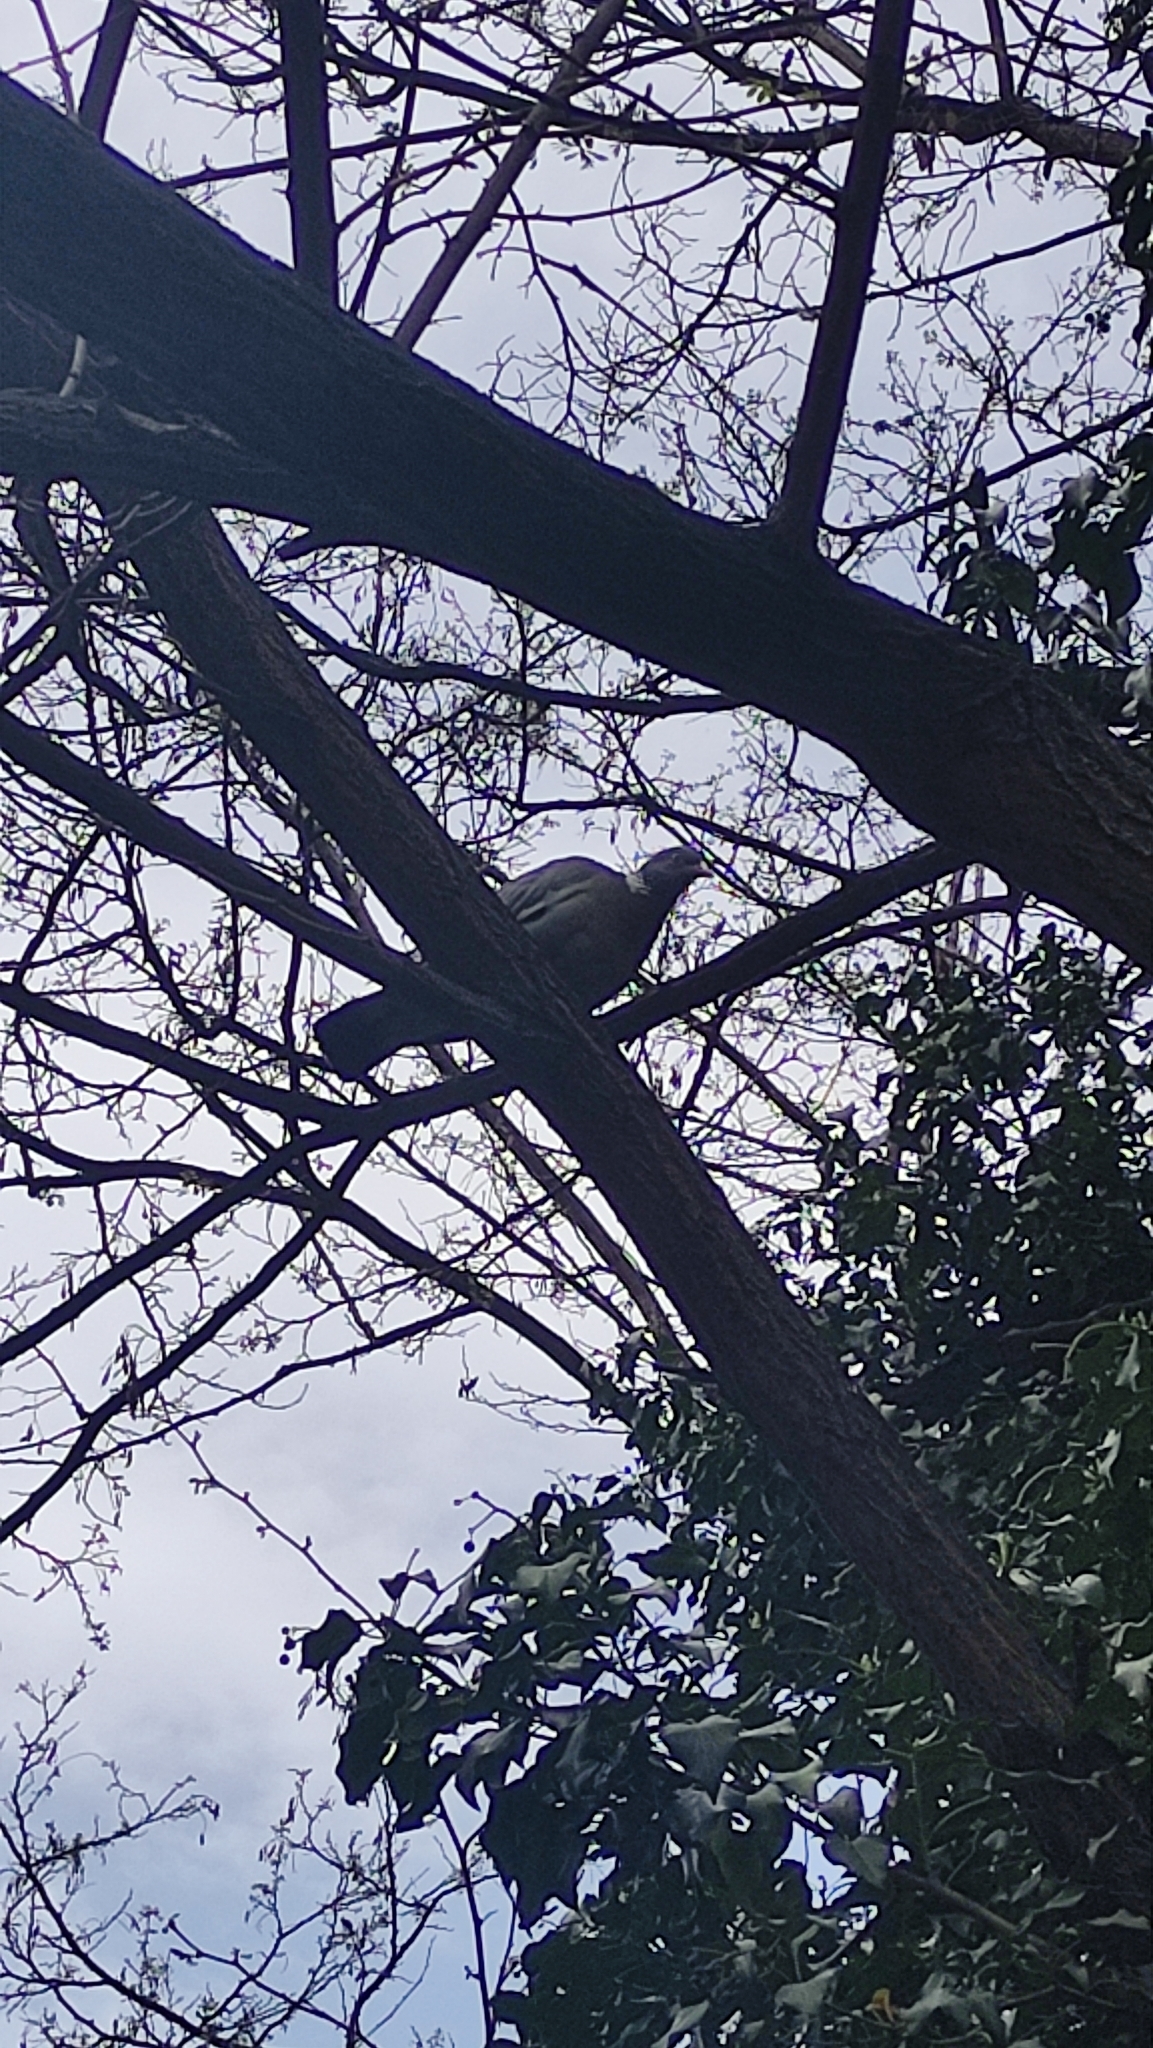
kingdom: Animalia
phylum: Chordata
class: Aves
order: Columbiformes
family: Columbidae
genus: Columba
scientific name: Columba palumbus
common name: Common wood pigeon
